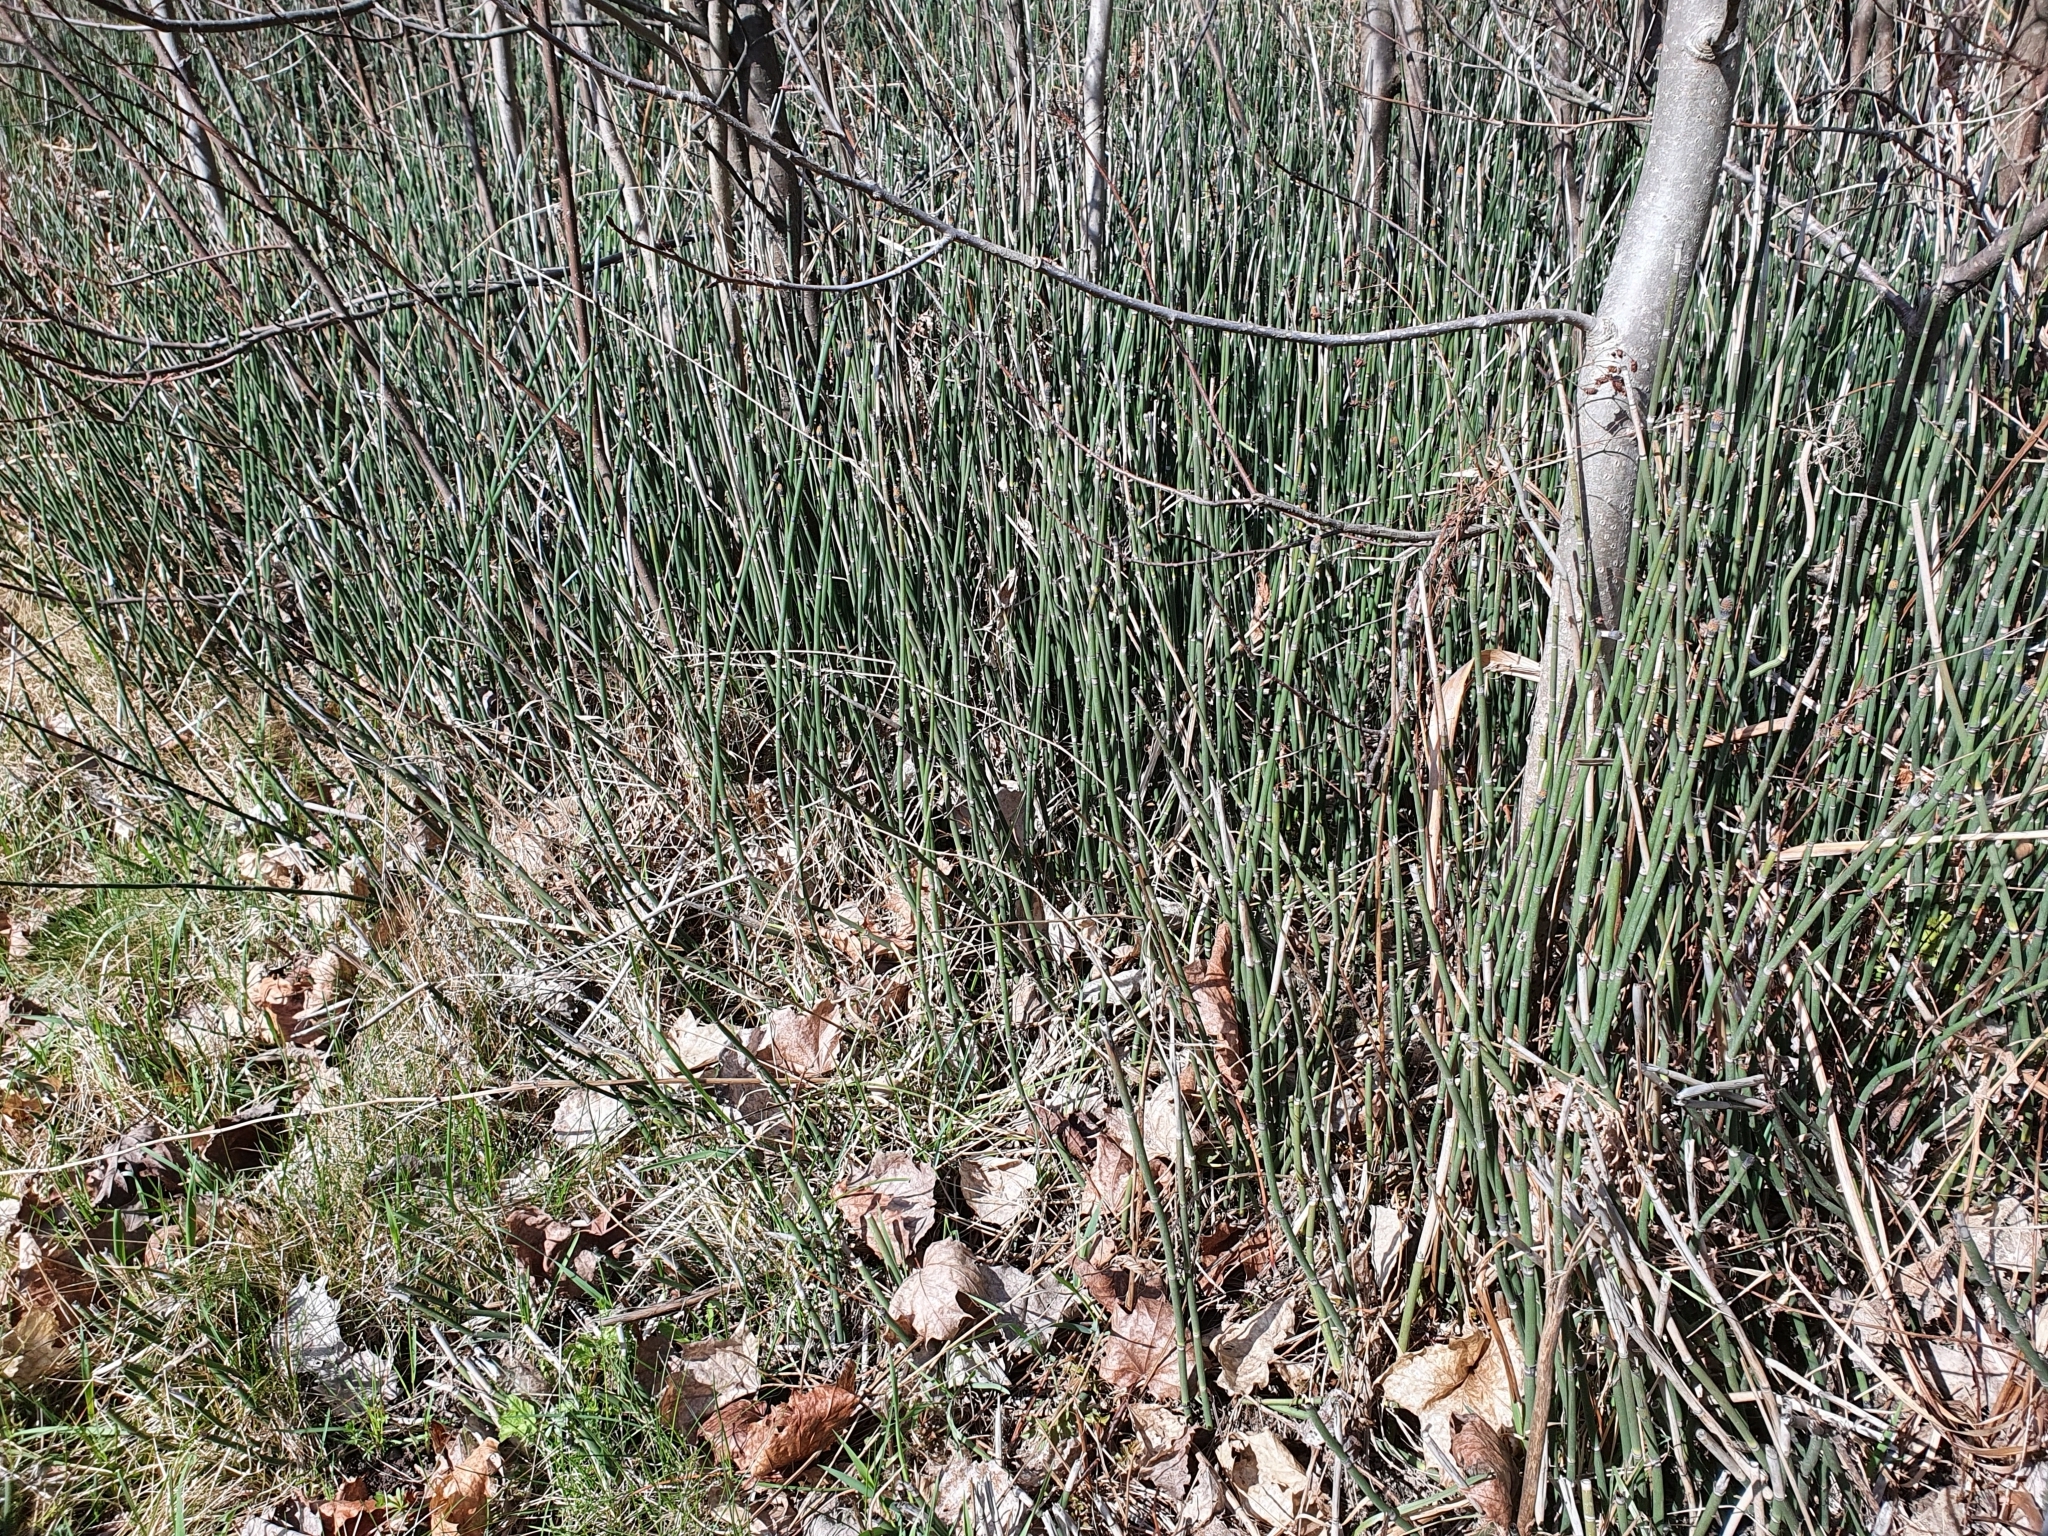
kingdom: Plantae
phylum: Tracheophyta
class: Polypodiopsida
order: Equisetales
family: Equisetaceae
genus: Equisetum
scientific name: Equisetum hyemale
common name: Rough horsetail
